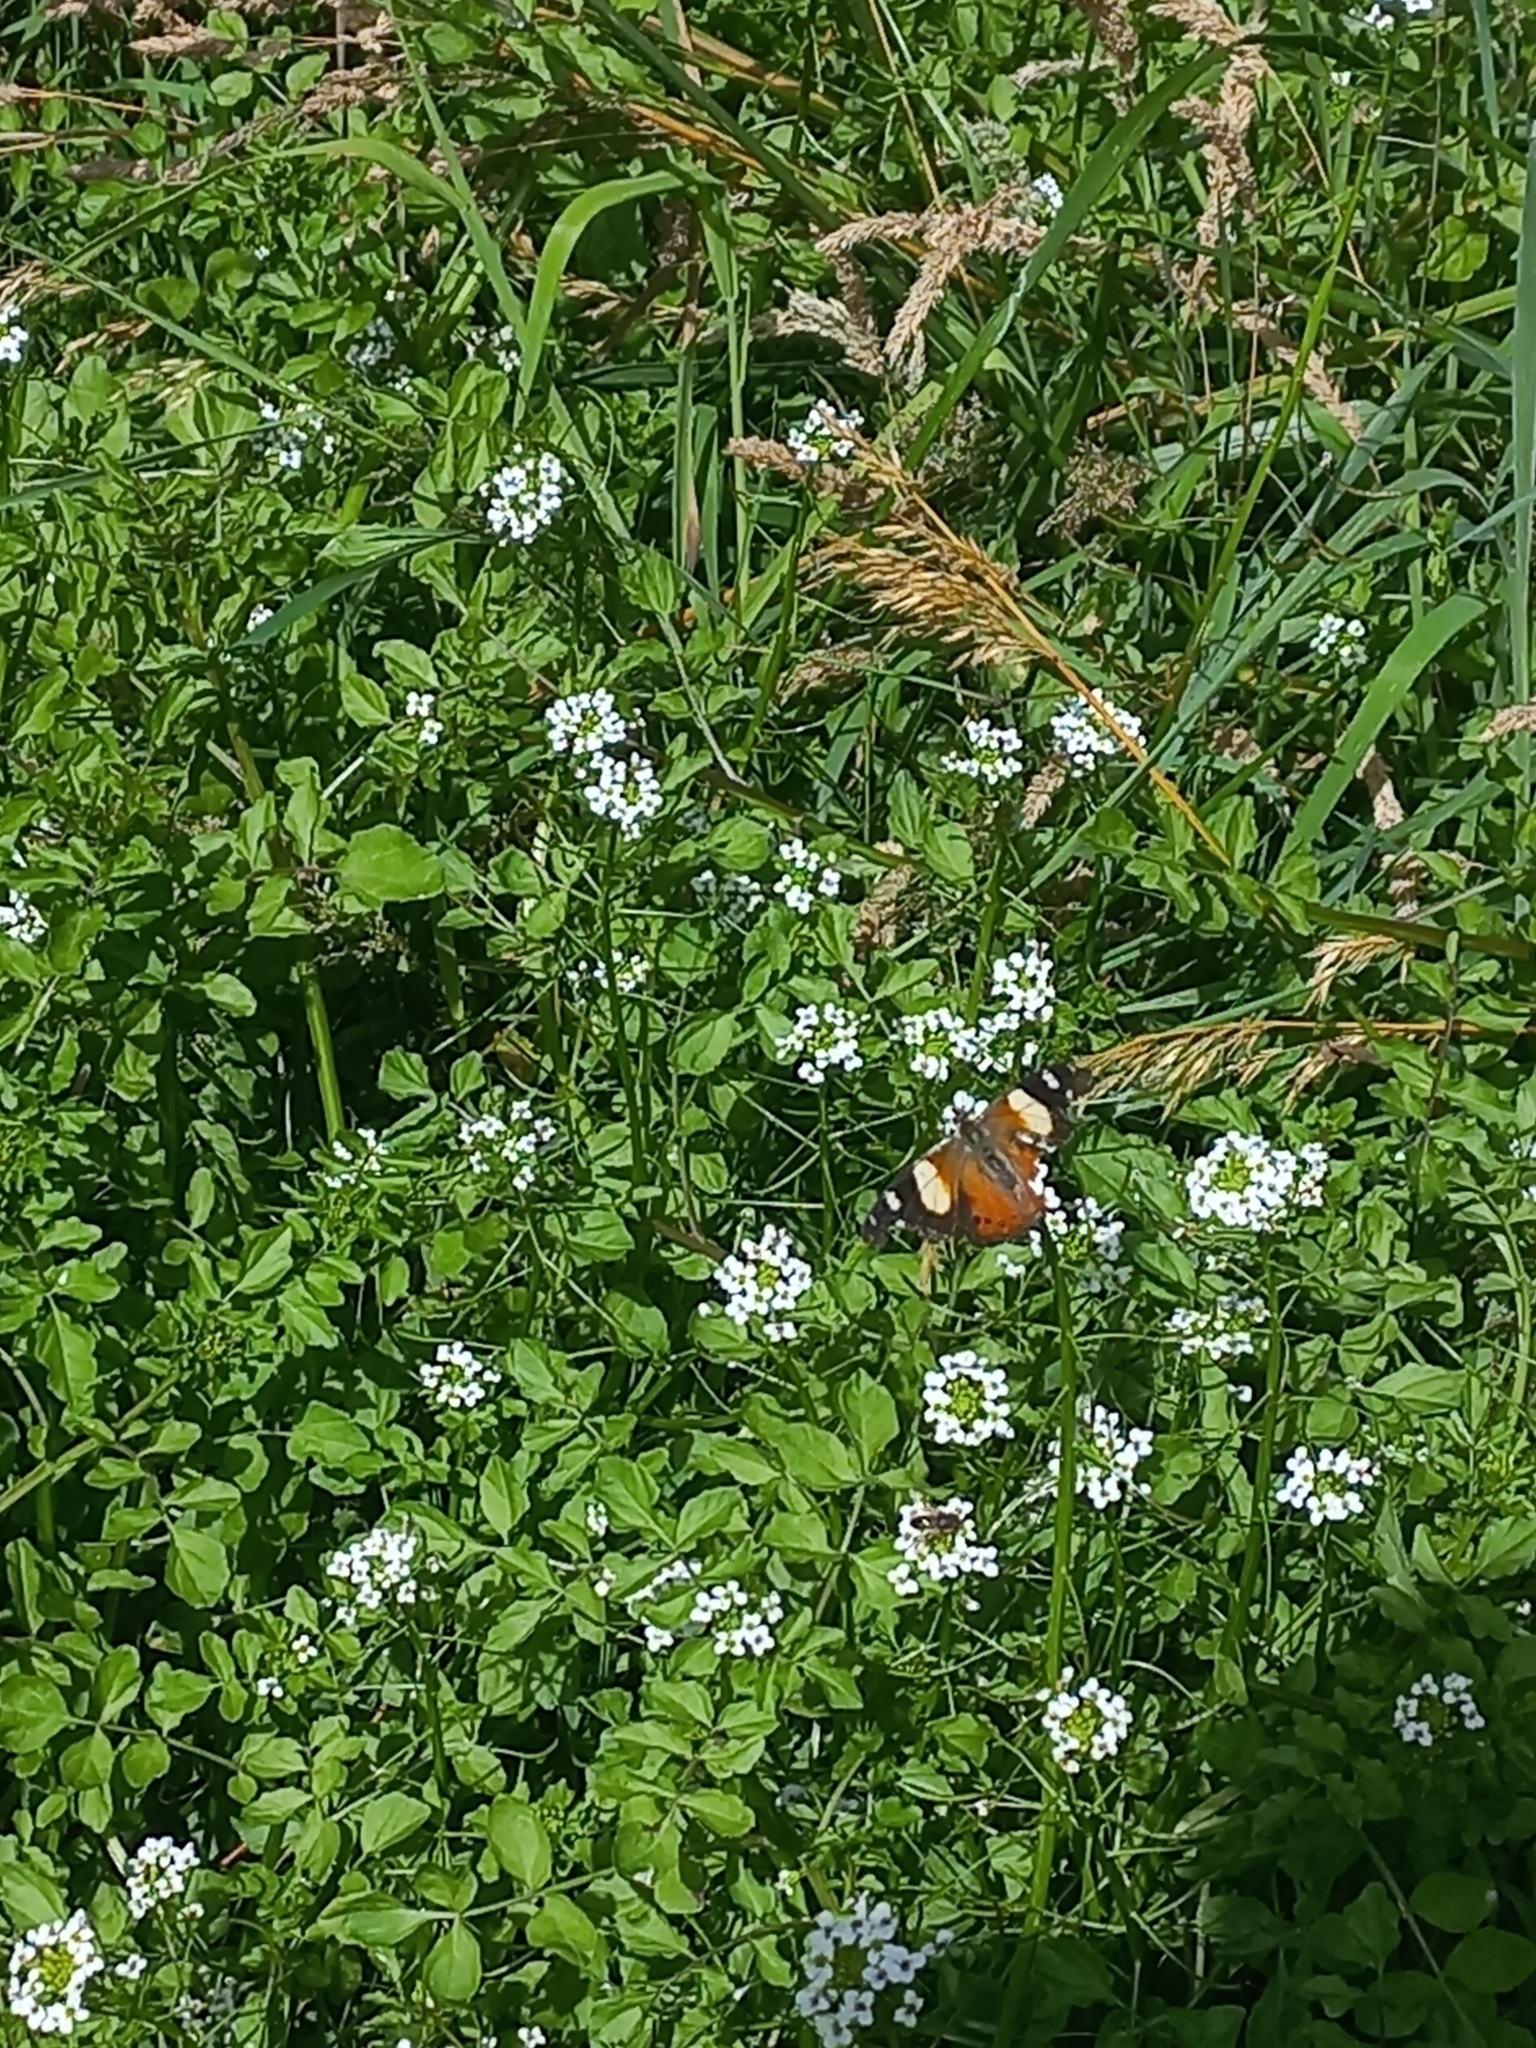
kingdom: Animalia
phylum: Arthropoda
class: Insecta
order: Lepidoptera
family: Nymphalidae
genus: Vanessa
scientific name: Vanessa itea
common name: Yellow admiral
